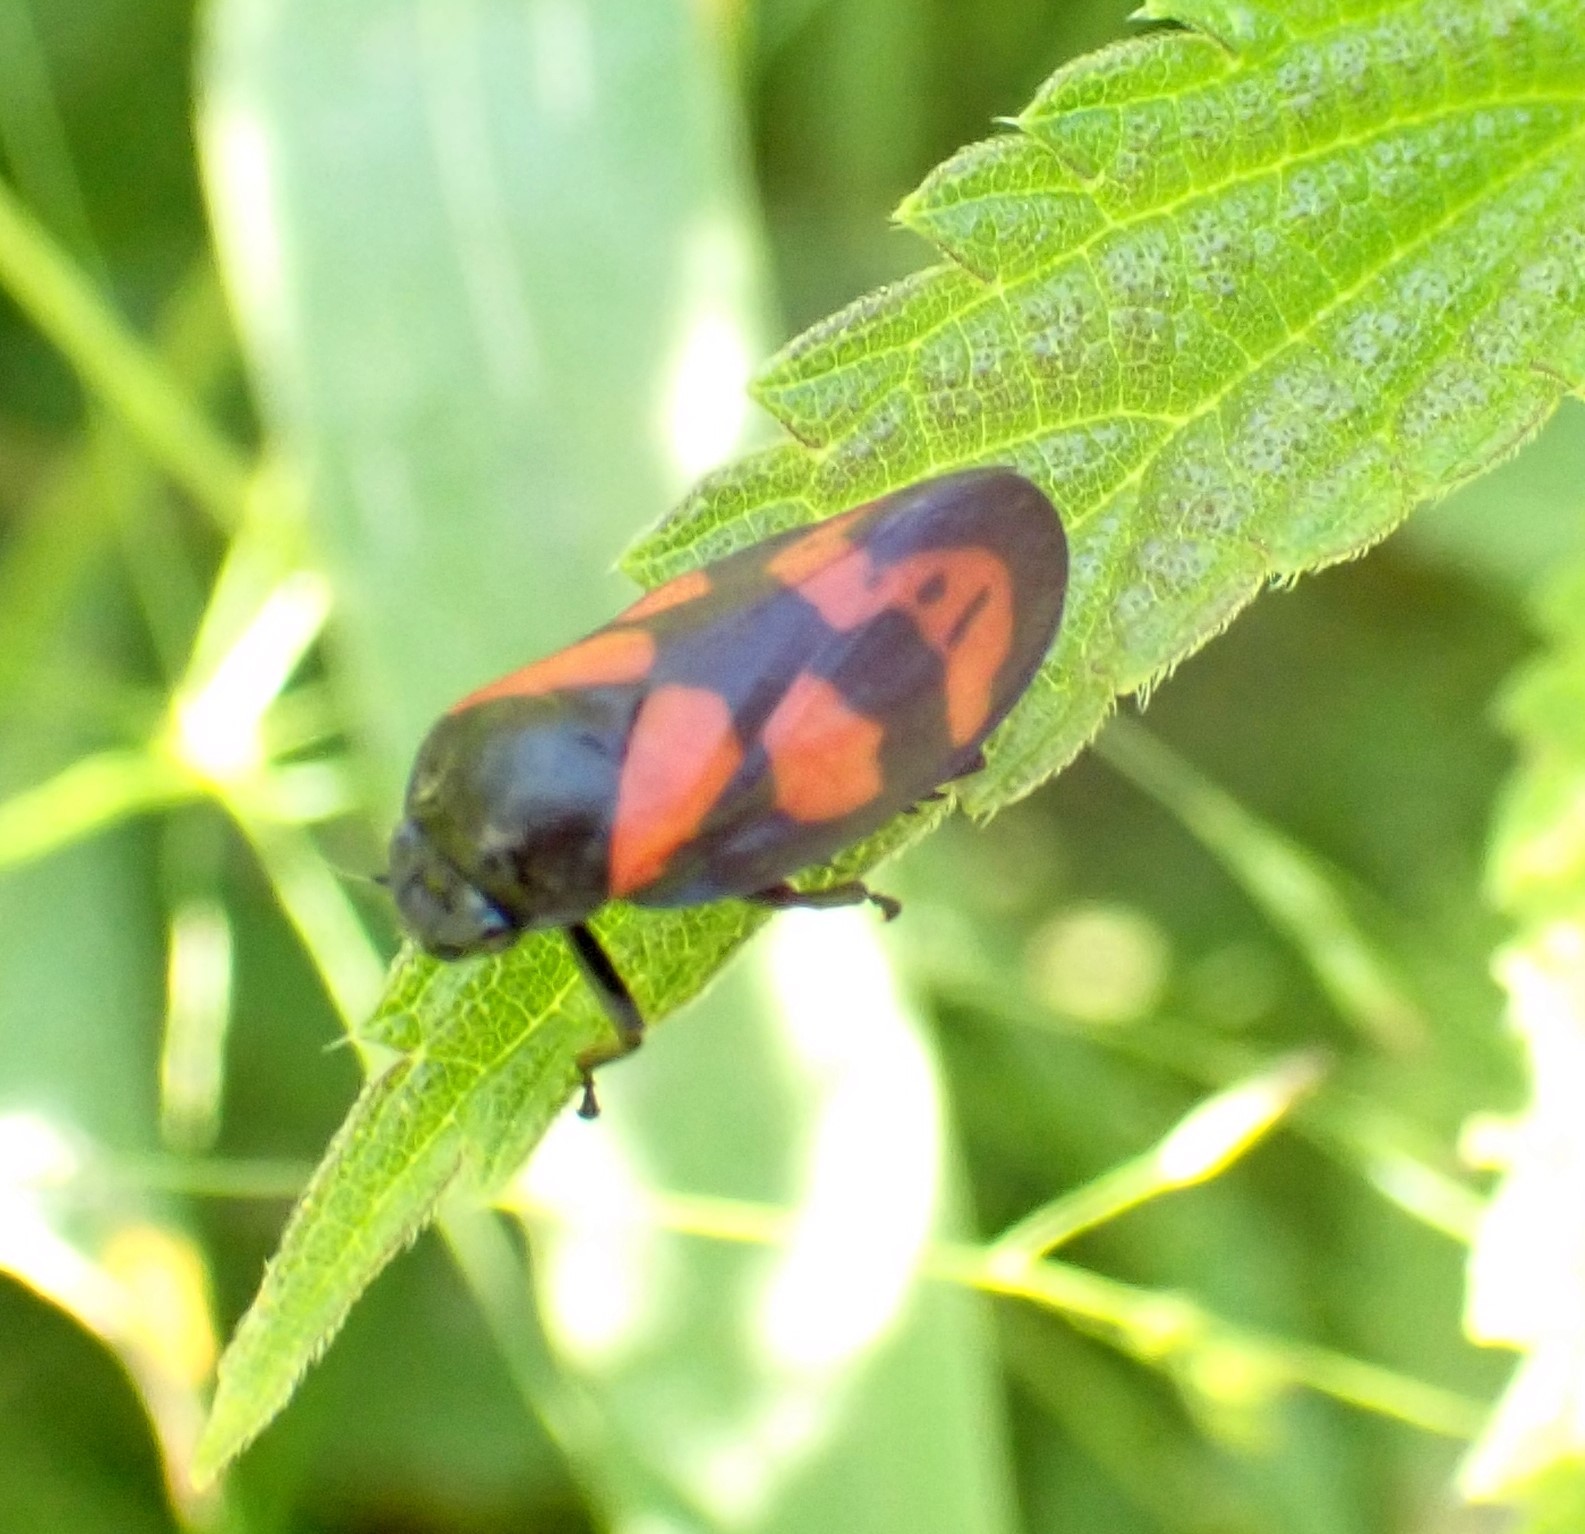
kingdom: Animalia
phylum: Arthropoda
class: Insecta
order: Hemiptera
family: Cercopidae
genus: Cercopis
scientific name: Cercopis vulnerata
